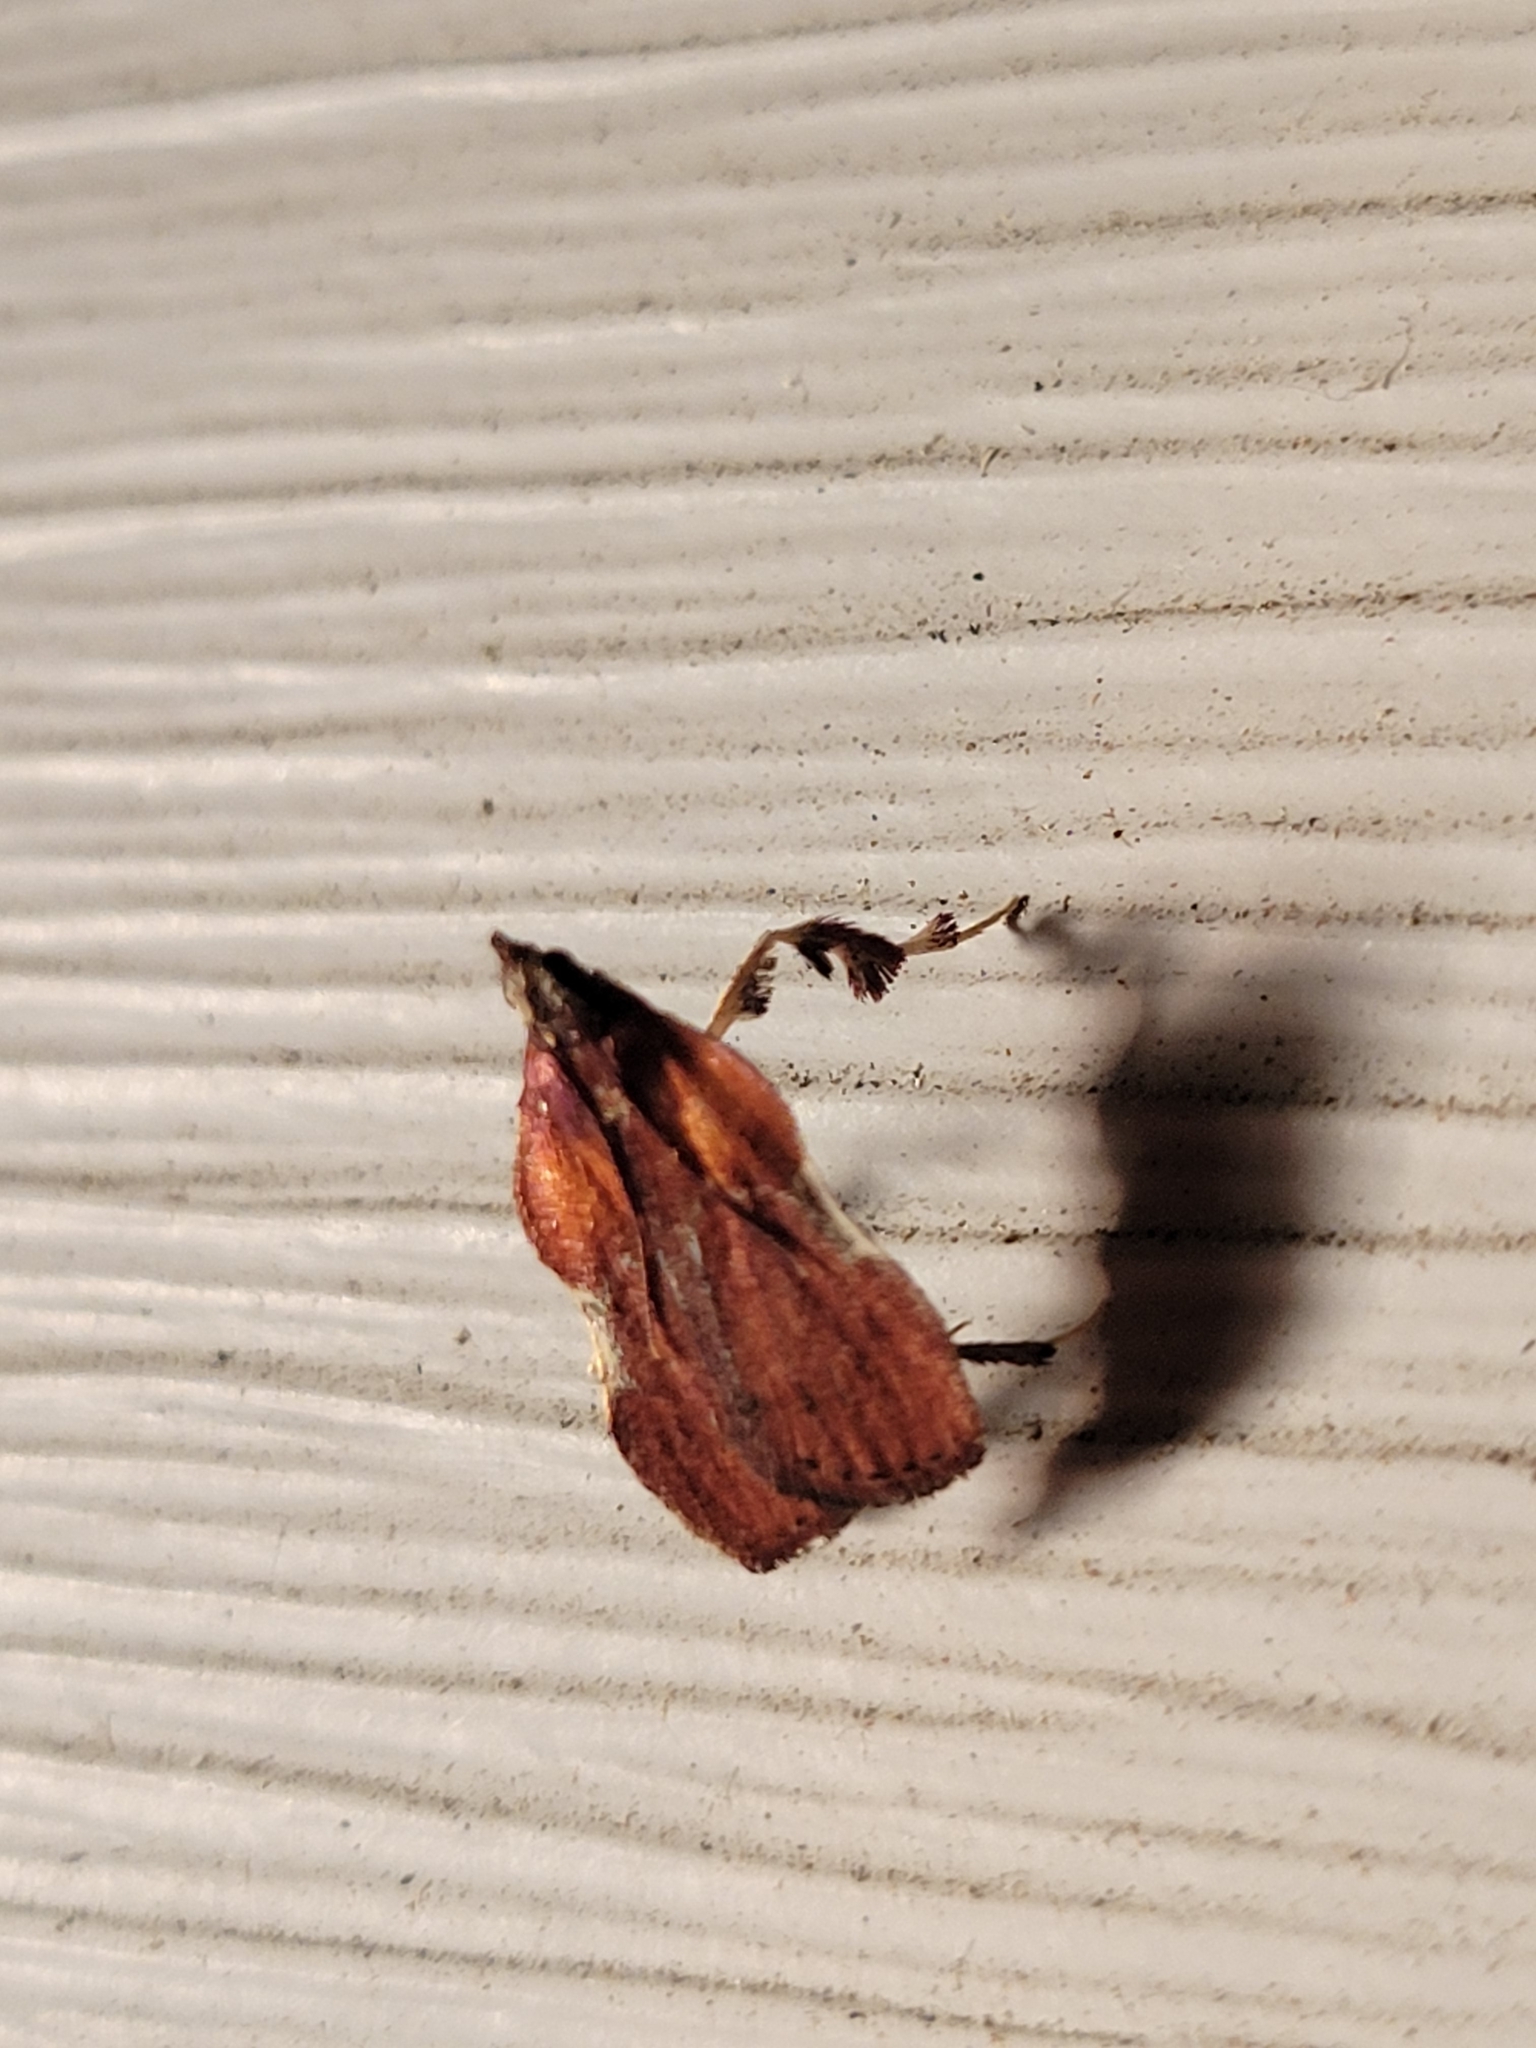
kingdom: Animalia
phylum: Arthropoda
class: Insecta
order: Lepidoptera
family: Pyralidae
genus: Galasa
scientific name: Galasa nigrinodis
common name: Boxwood leaftier moth
